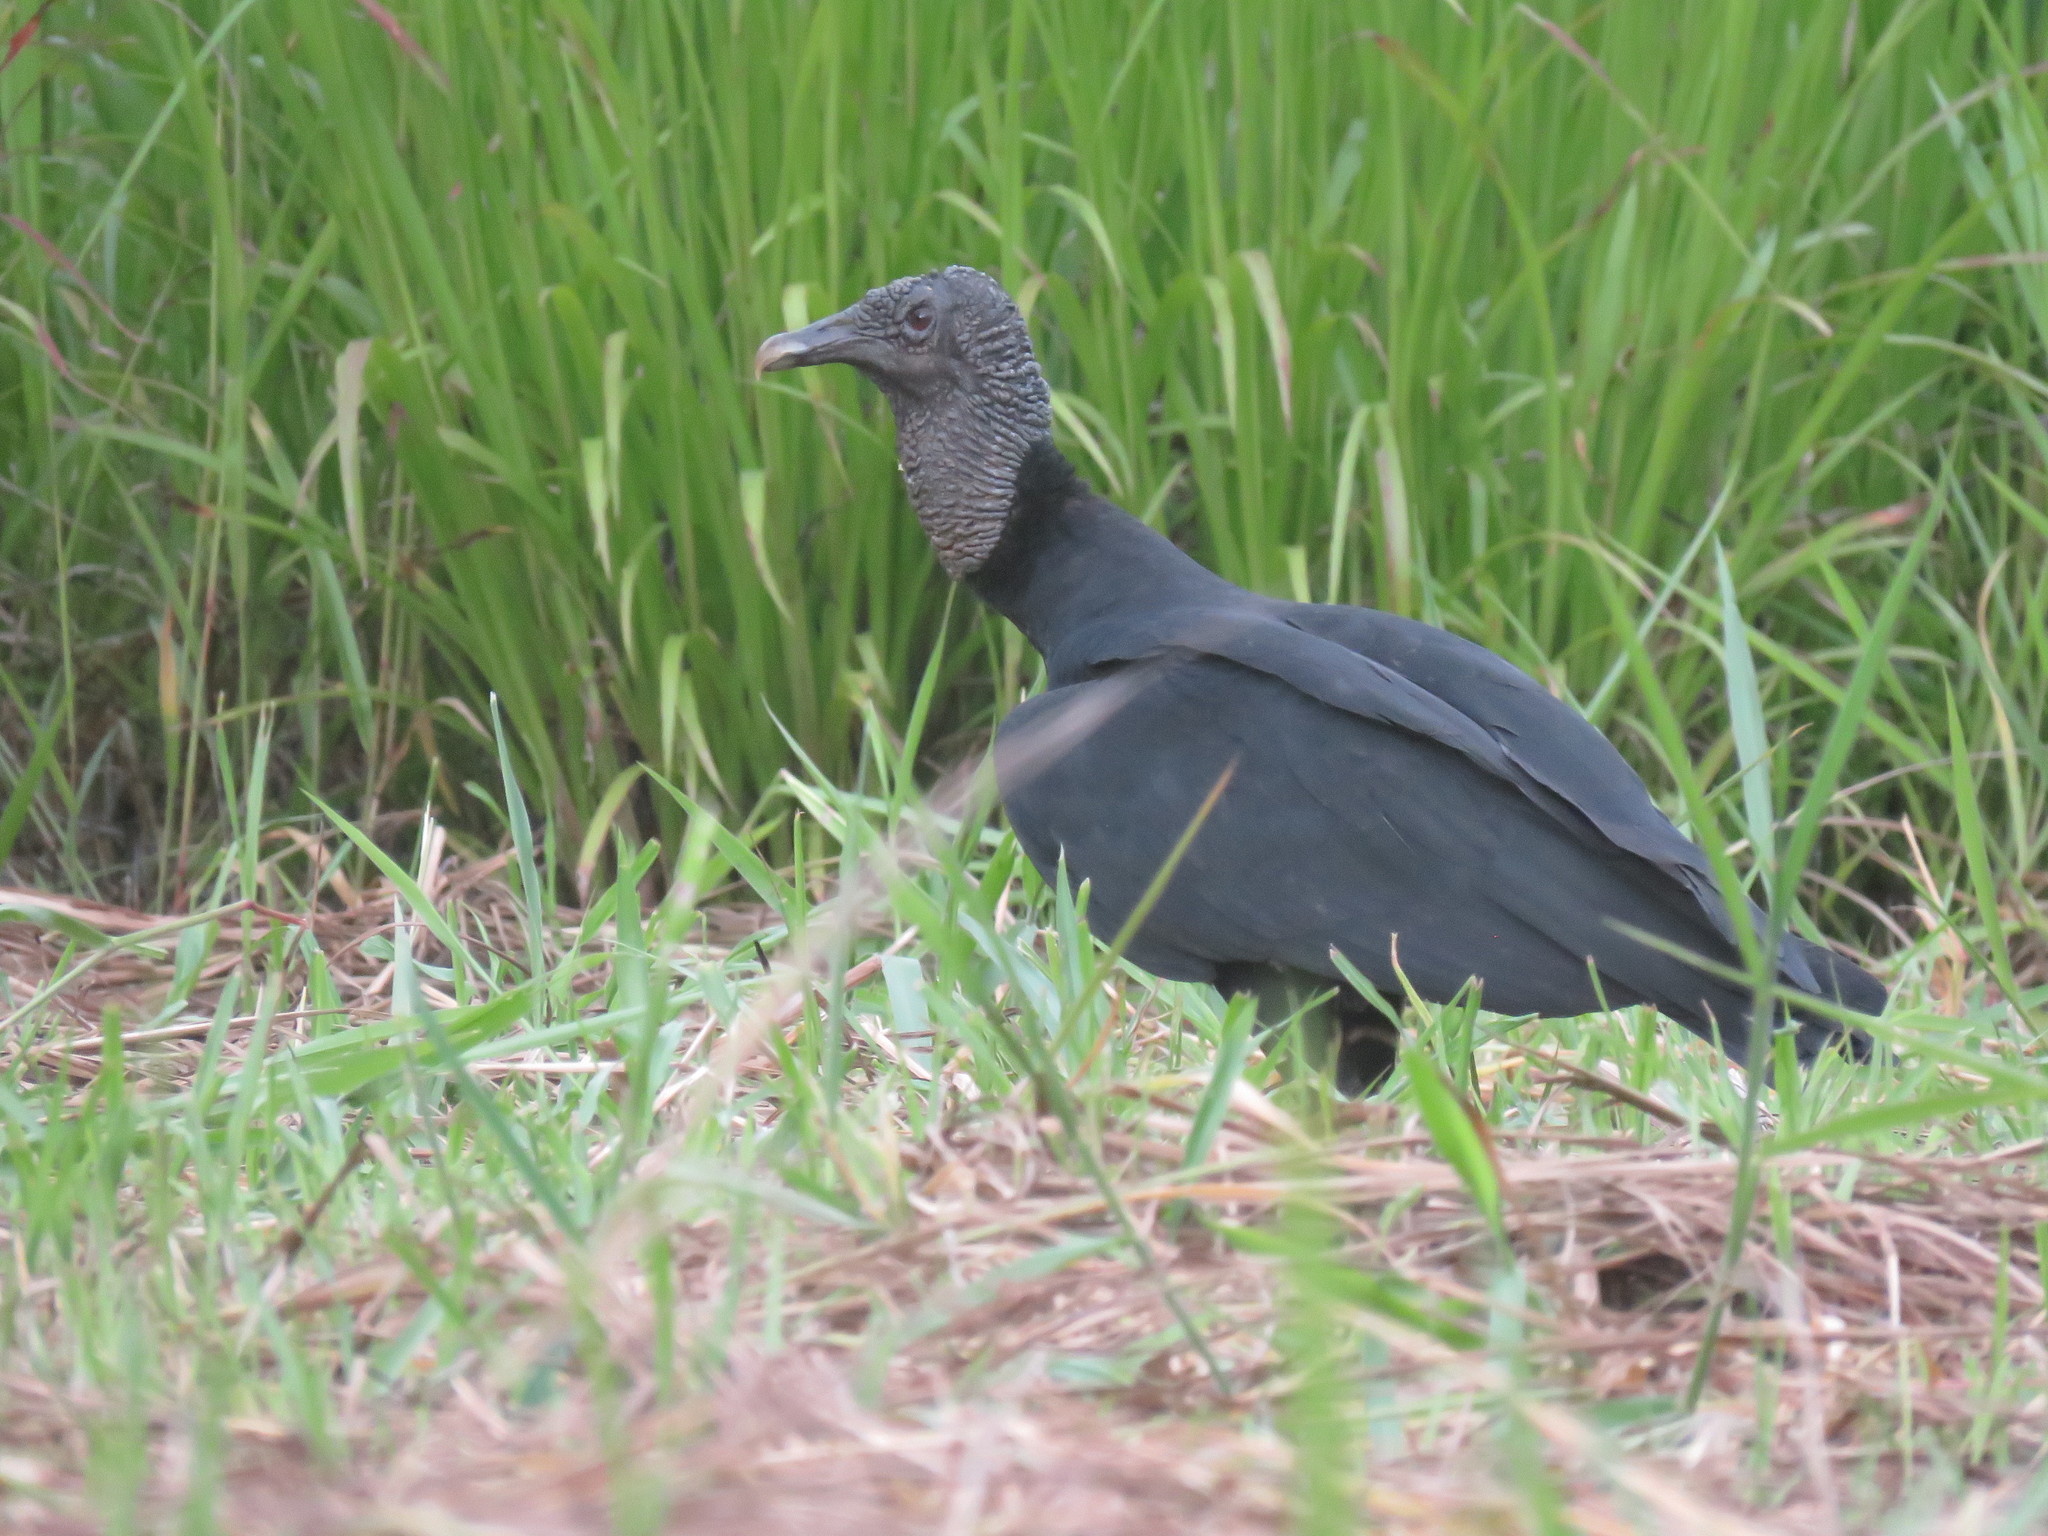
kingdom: Animalia
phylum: Chordata
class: Aves
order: Accipitriformes
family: Cathartidae
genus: Coragyps
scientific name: Coragyps atratus
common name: Black vulture
